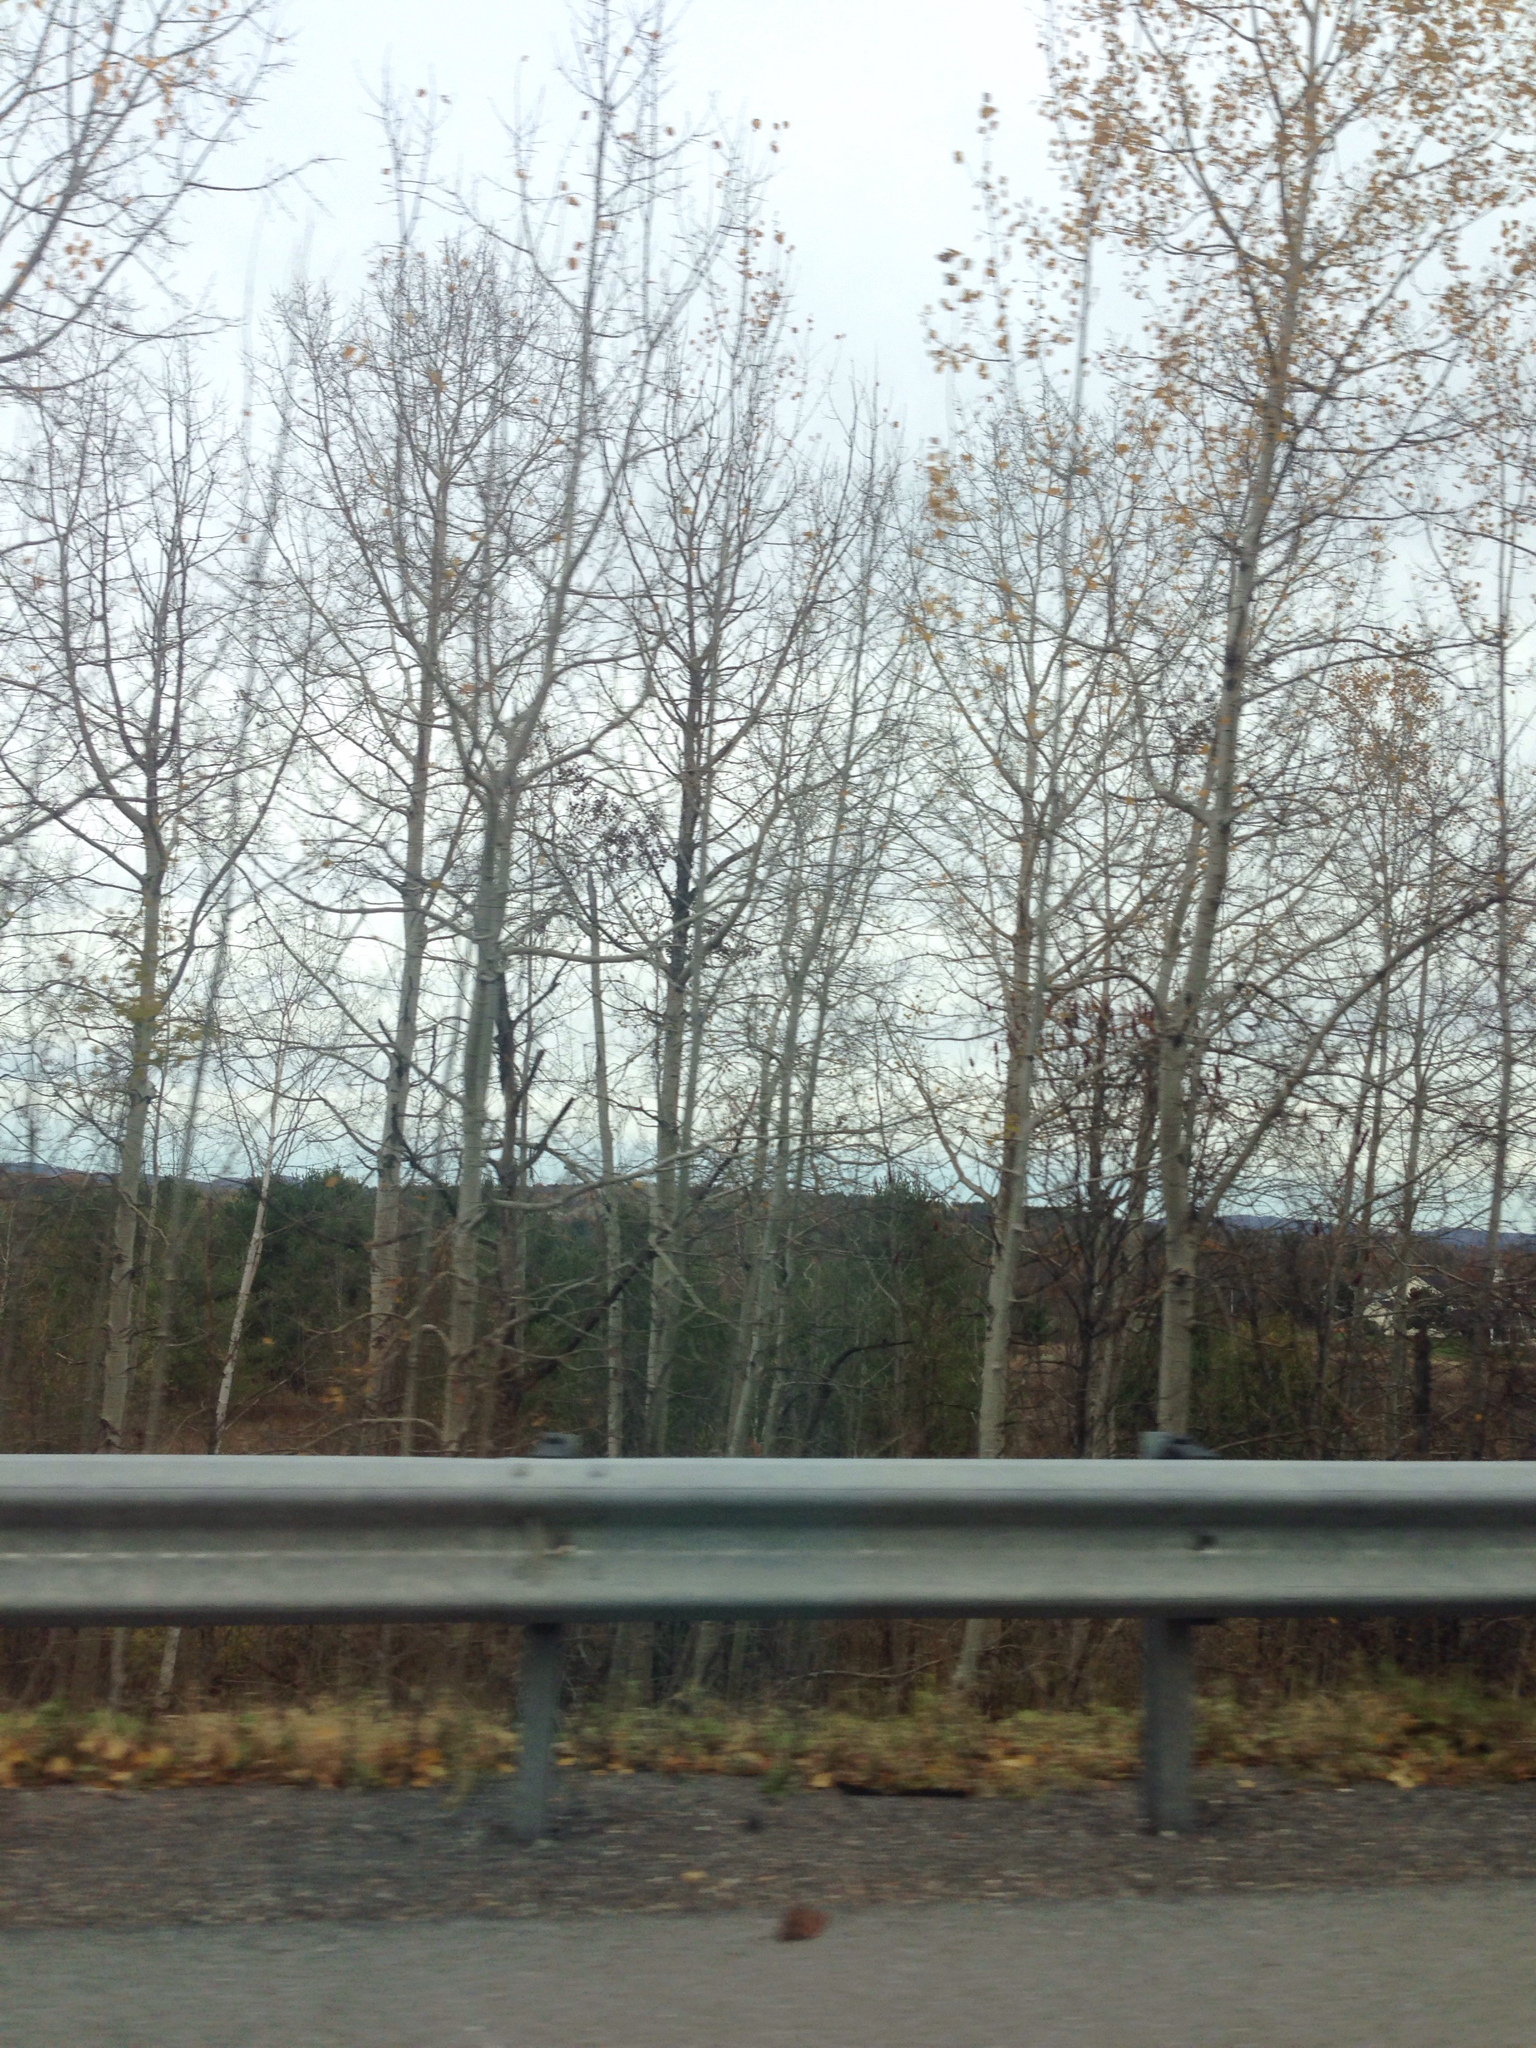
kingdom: Plantae
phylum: Tracheophyta
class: Magnoliopsida
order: Malpighiales
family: Salicaceae
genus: Populus
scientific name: Populus tremuloides
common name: Quaking aspen
